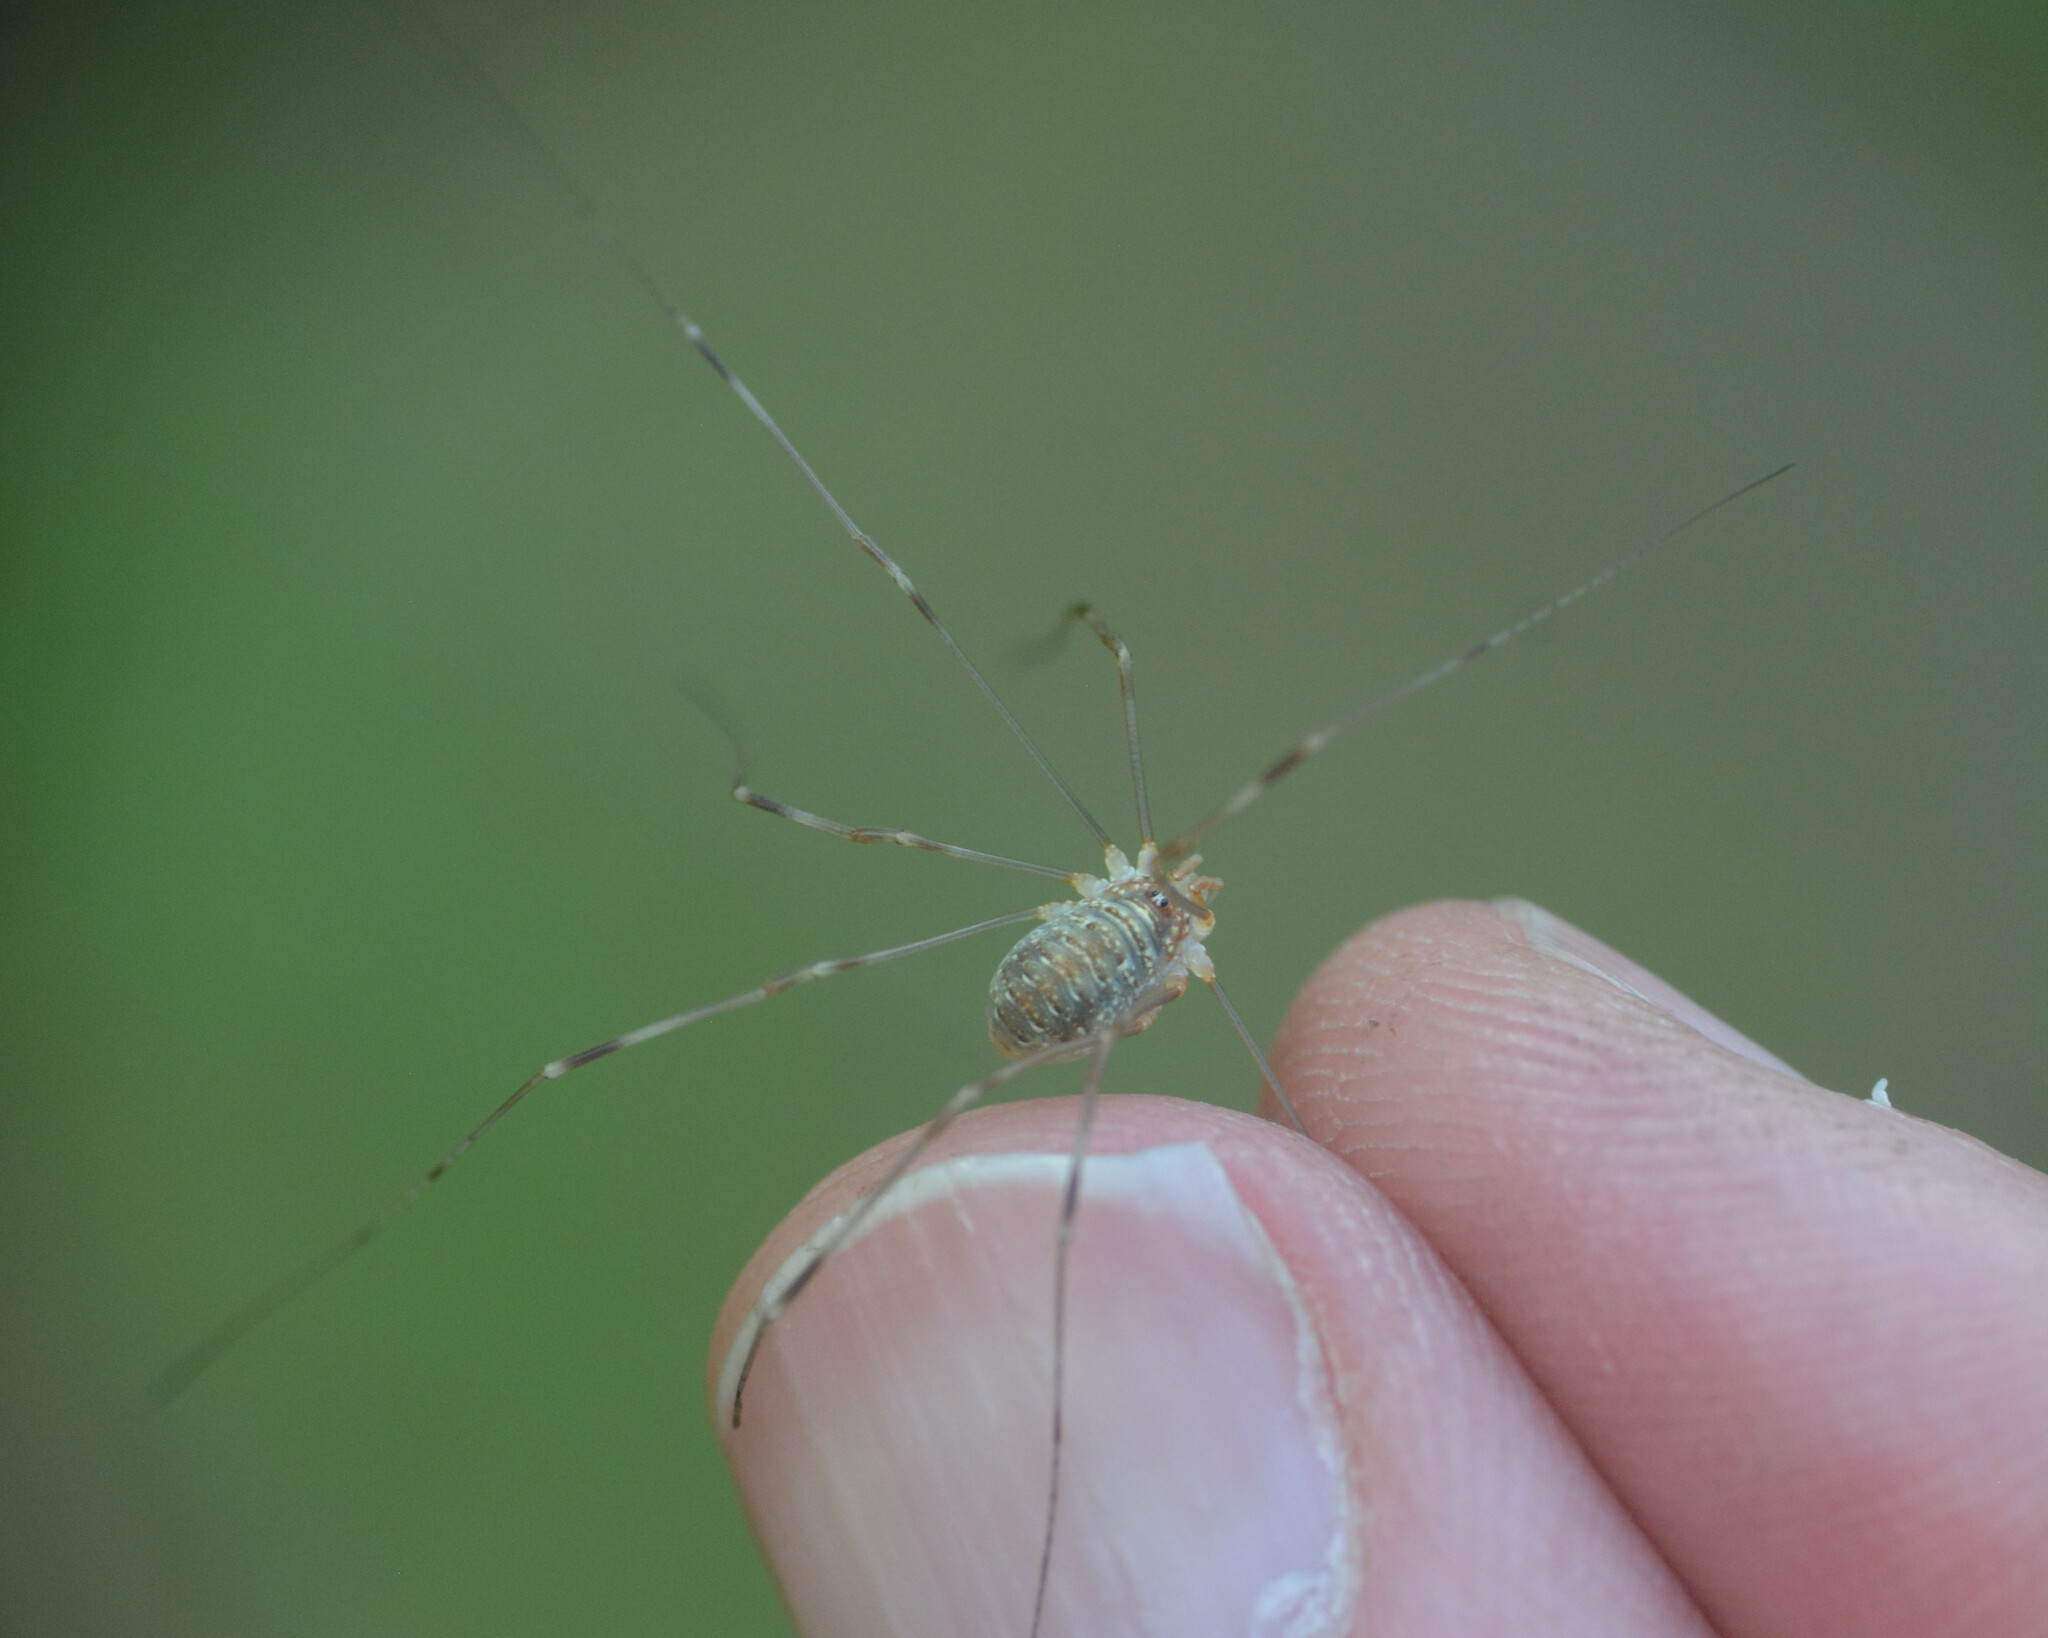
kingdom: Animalia
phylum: Arthropoda
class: Arachnida
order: Opiliones
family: Phalangiidae
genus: Opilio
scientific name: Opilio canestrinii
